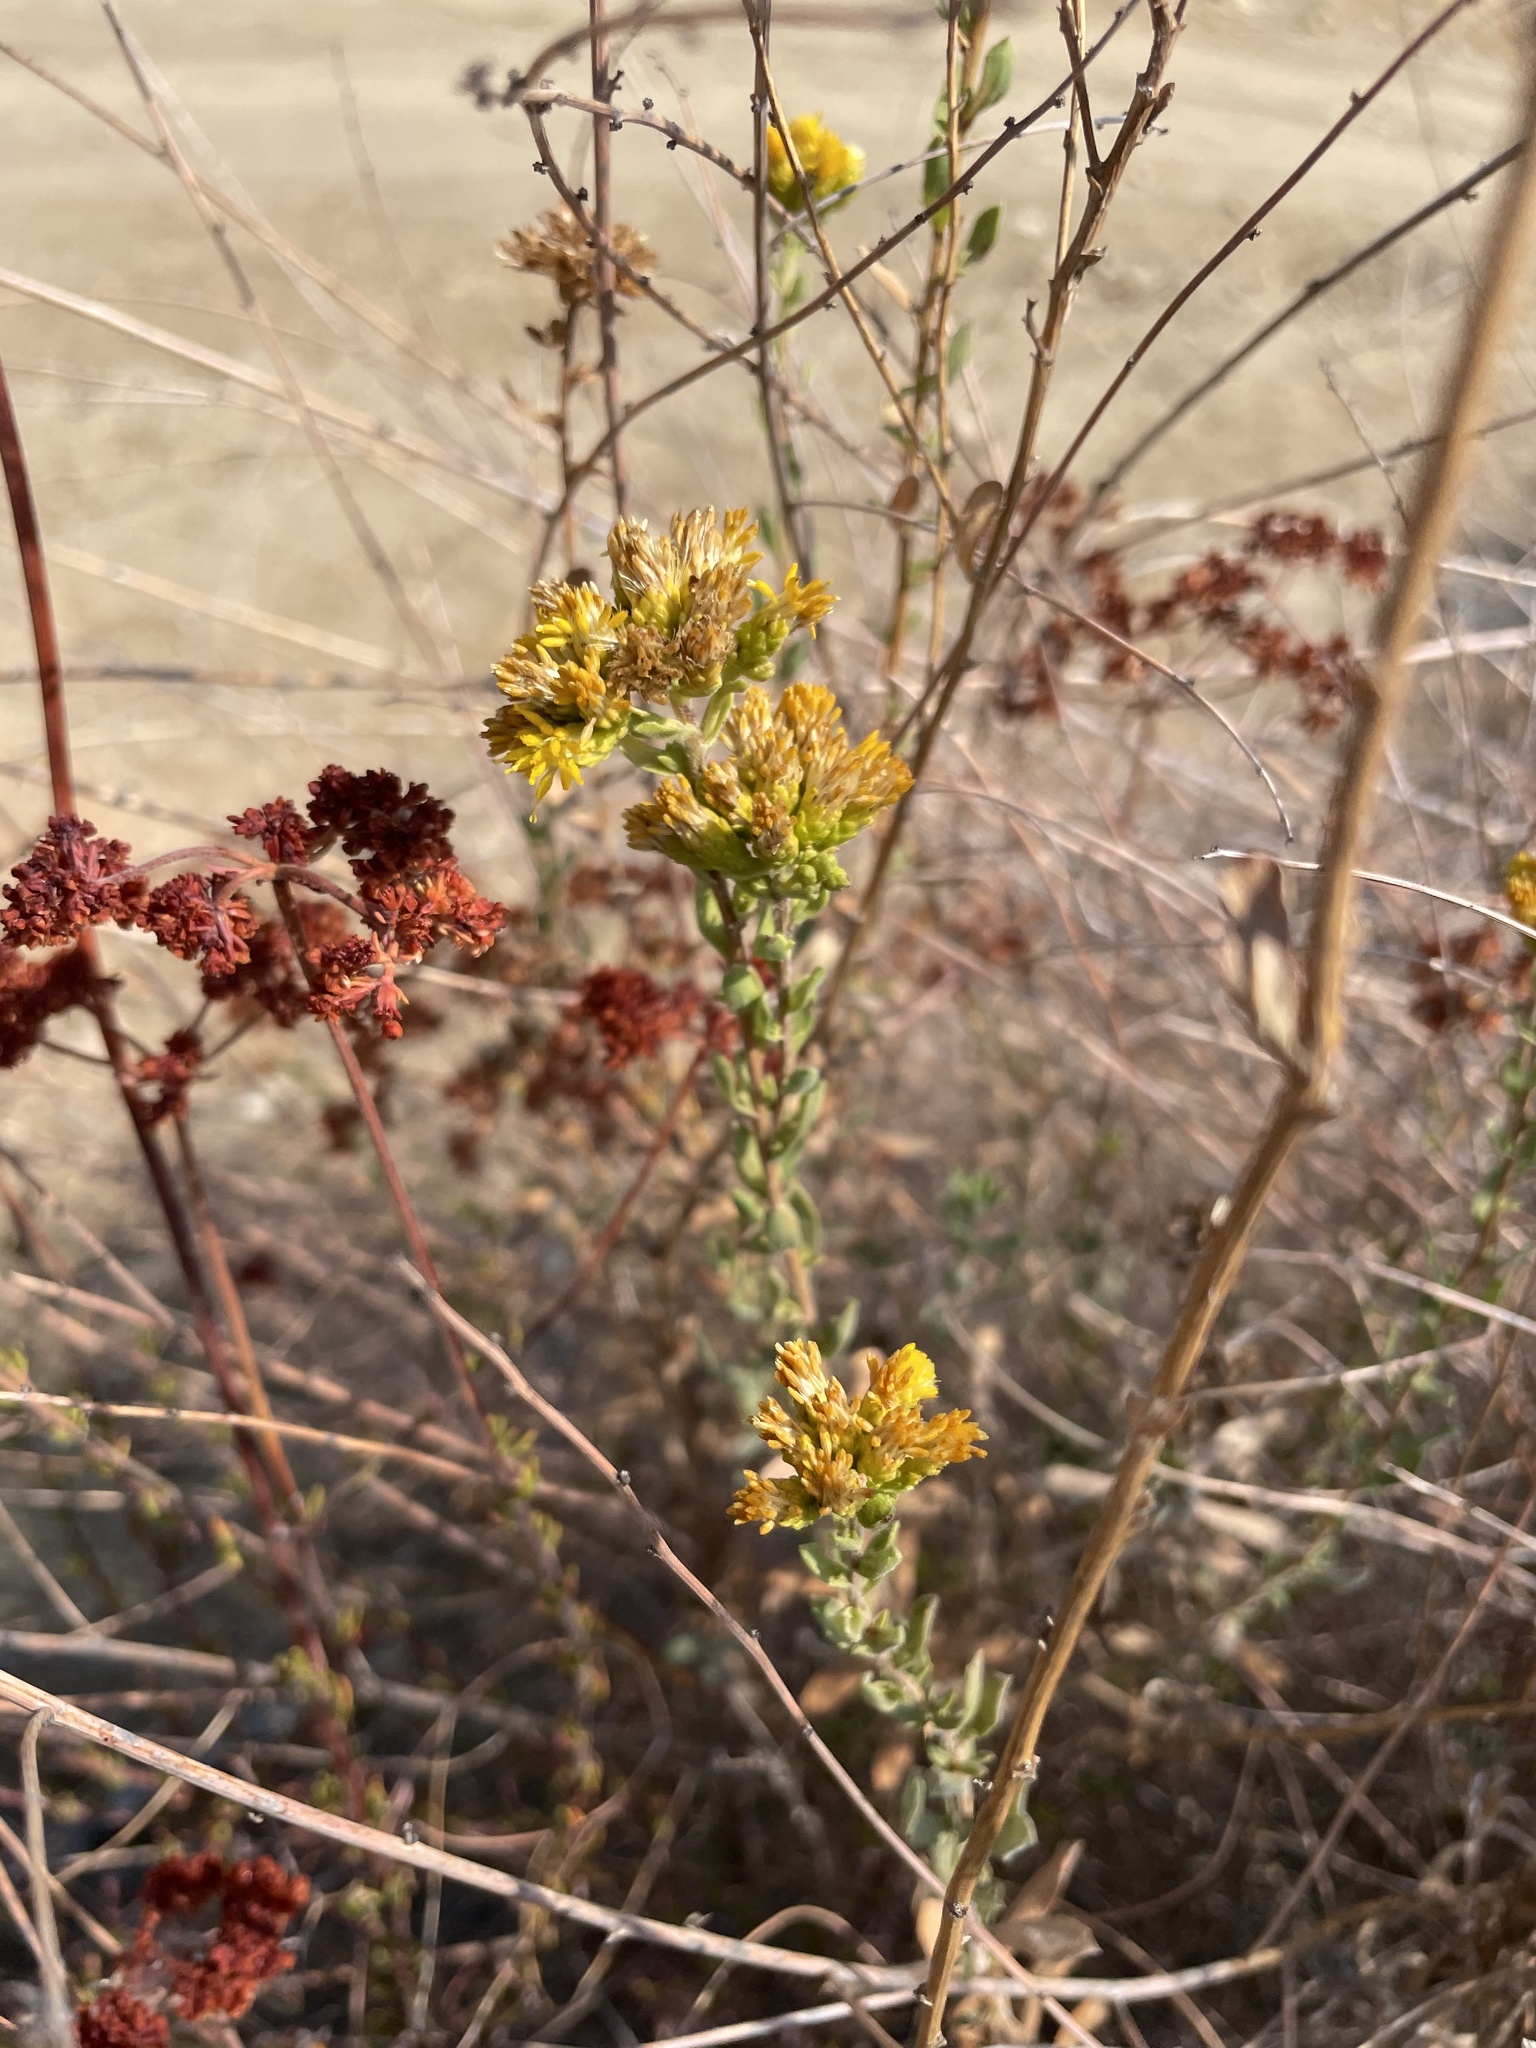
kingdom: Plantae
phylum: Tracheophyta
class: Magnoliopsida
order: Asterales
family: Asteraceae
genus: Isocoma
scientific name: Isocoma menziesii
